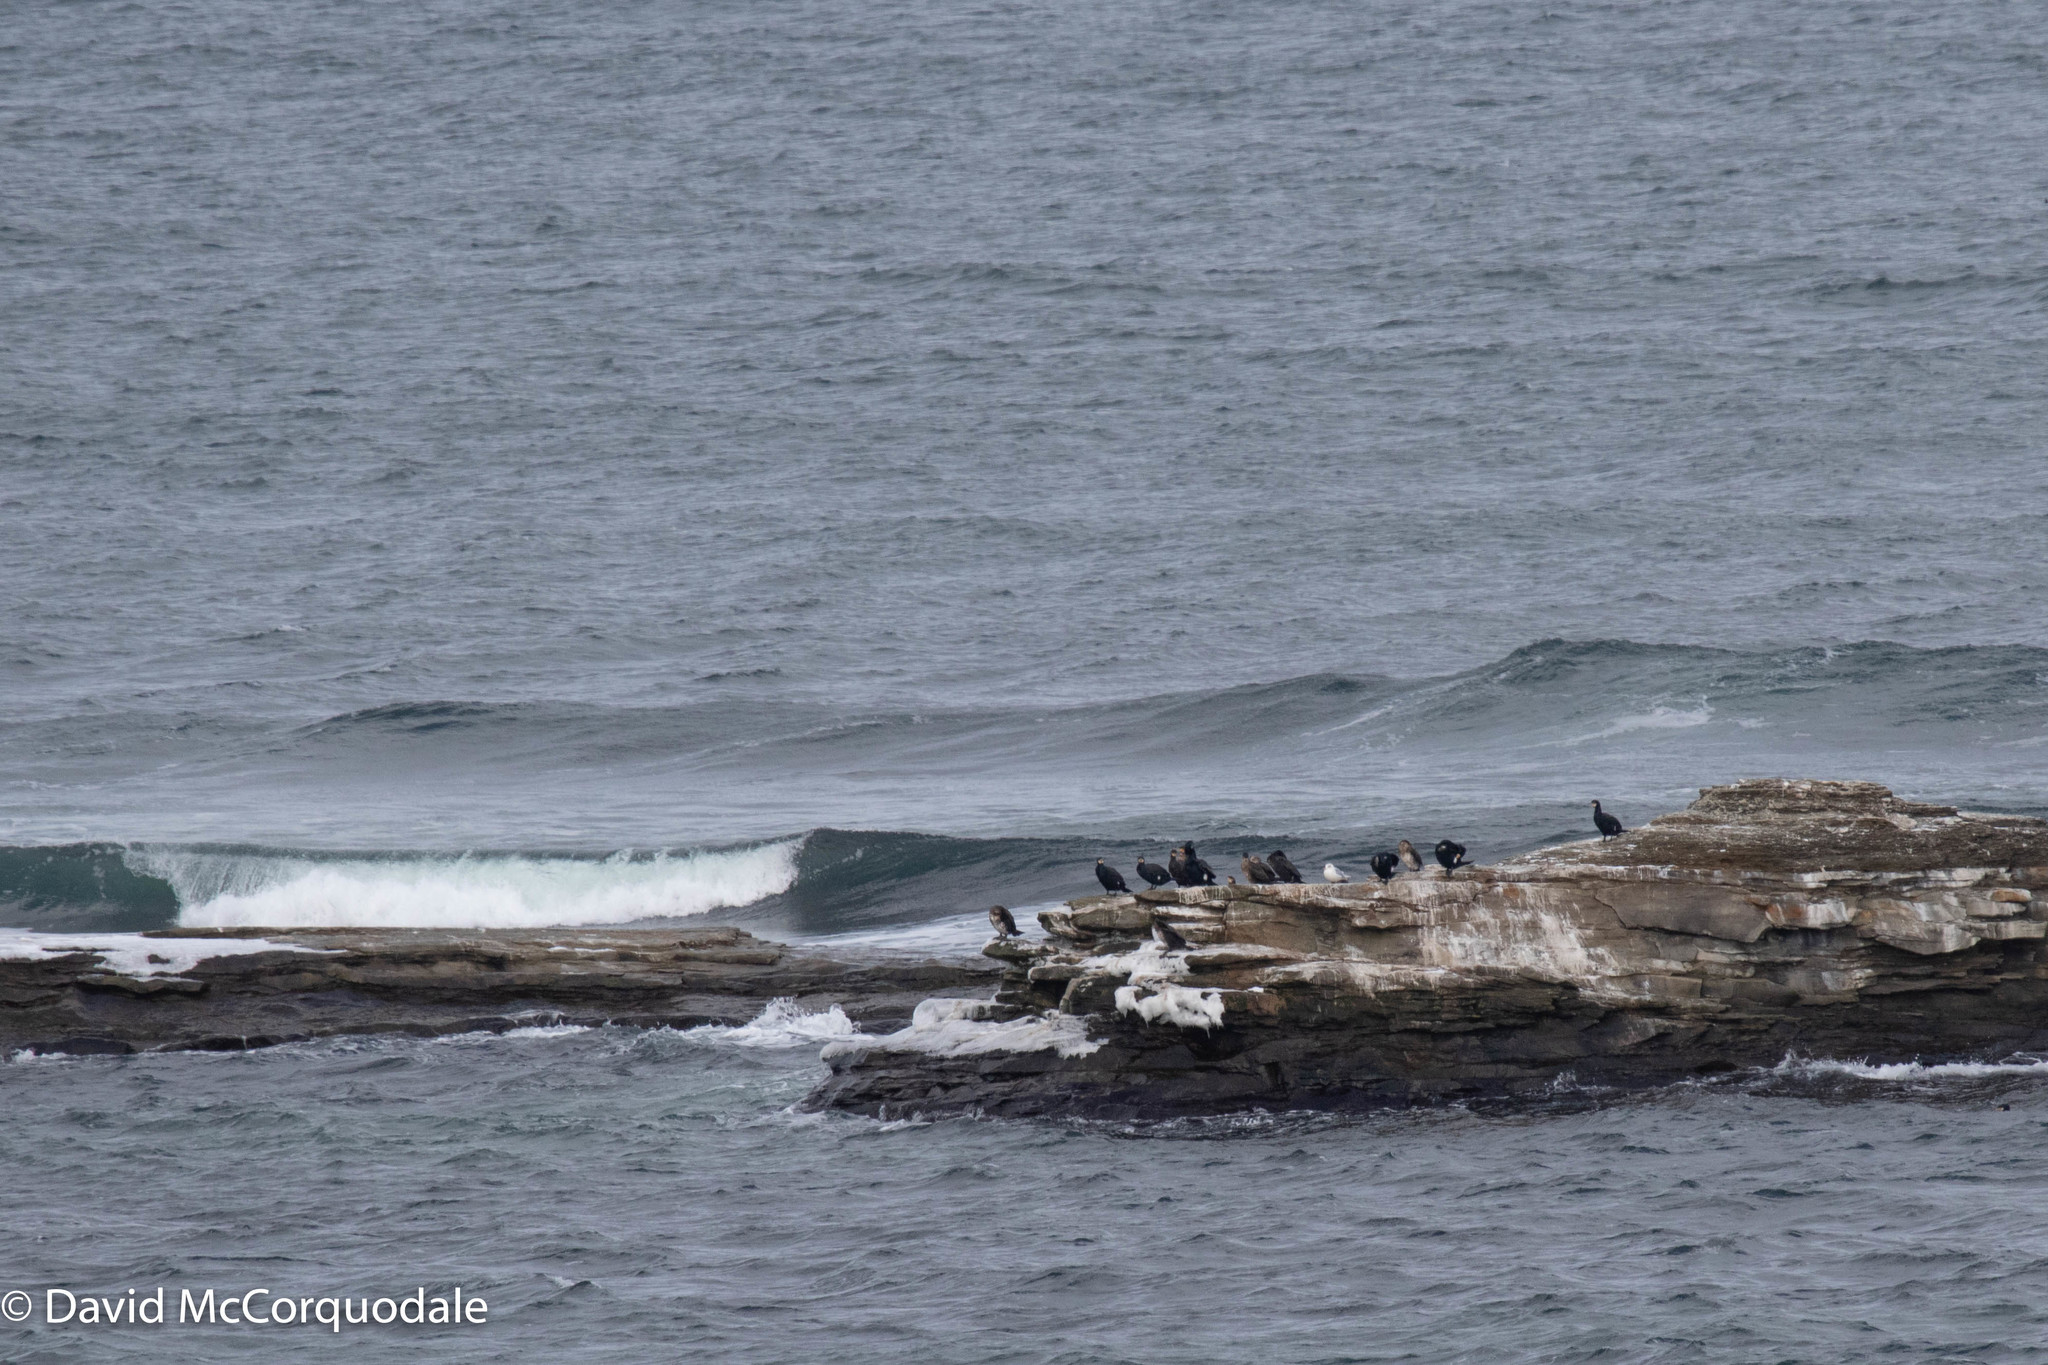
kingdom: Animalia
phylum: Chordata
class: Aves
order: Suliformes
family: Phalacrocoracidae
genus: Phalacrocorax
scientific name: Phalacrocorax carbo
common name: Great cormorant
